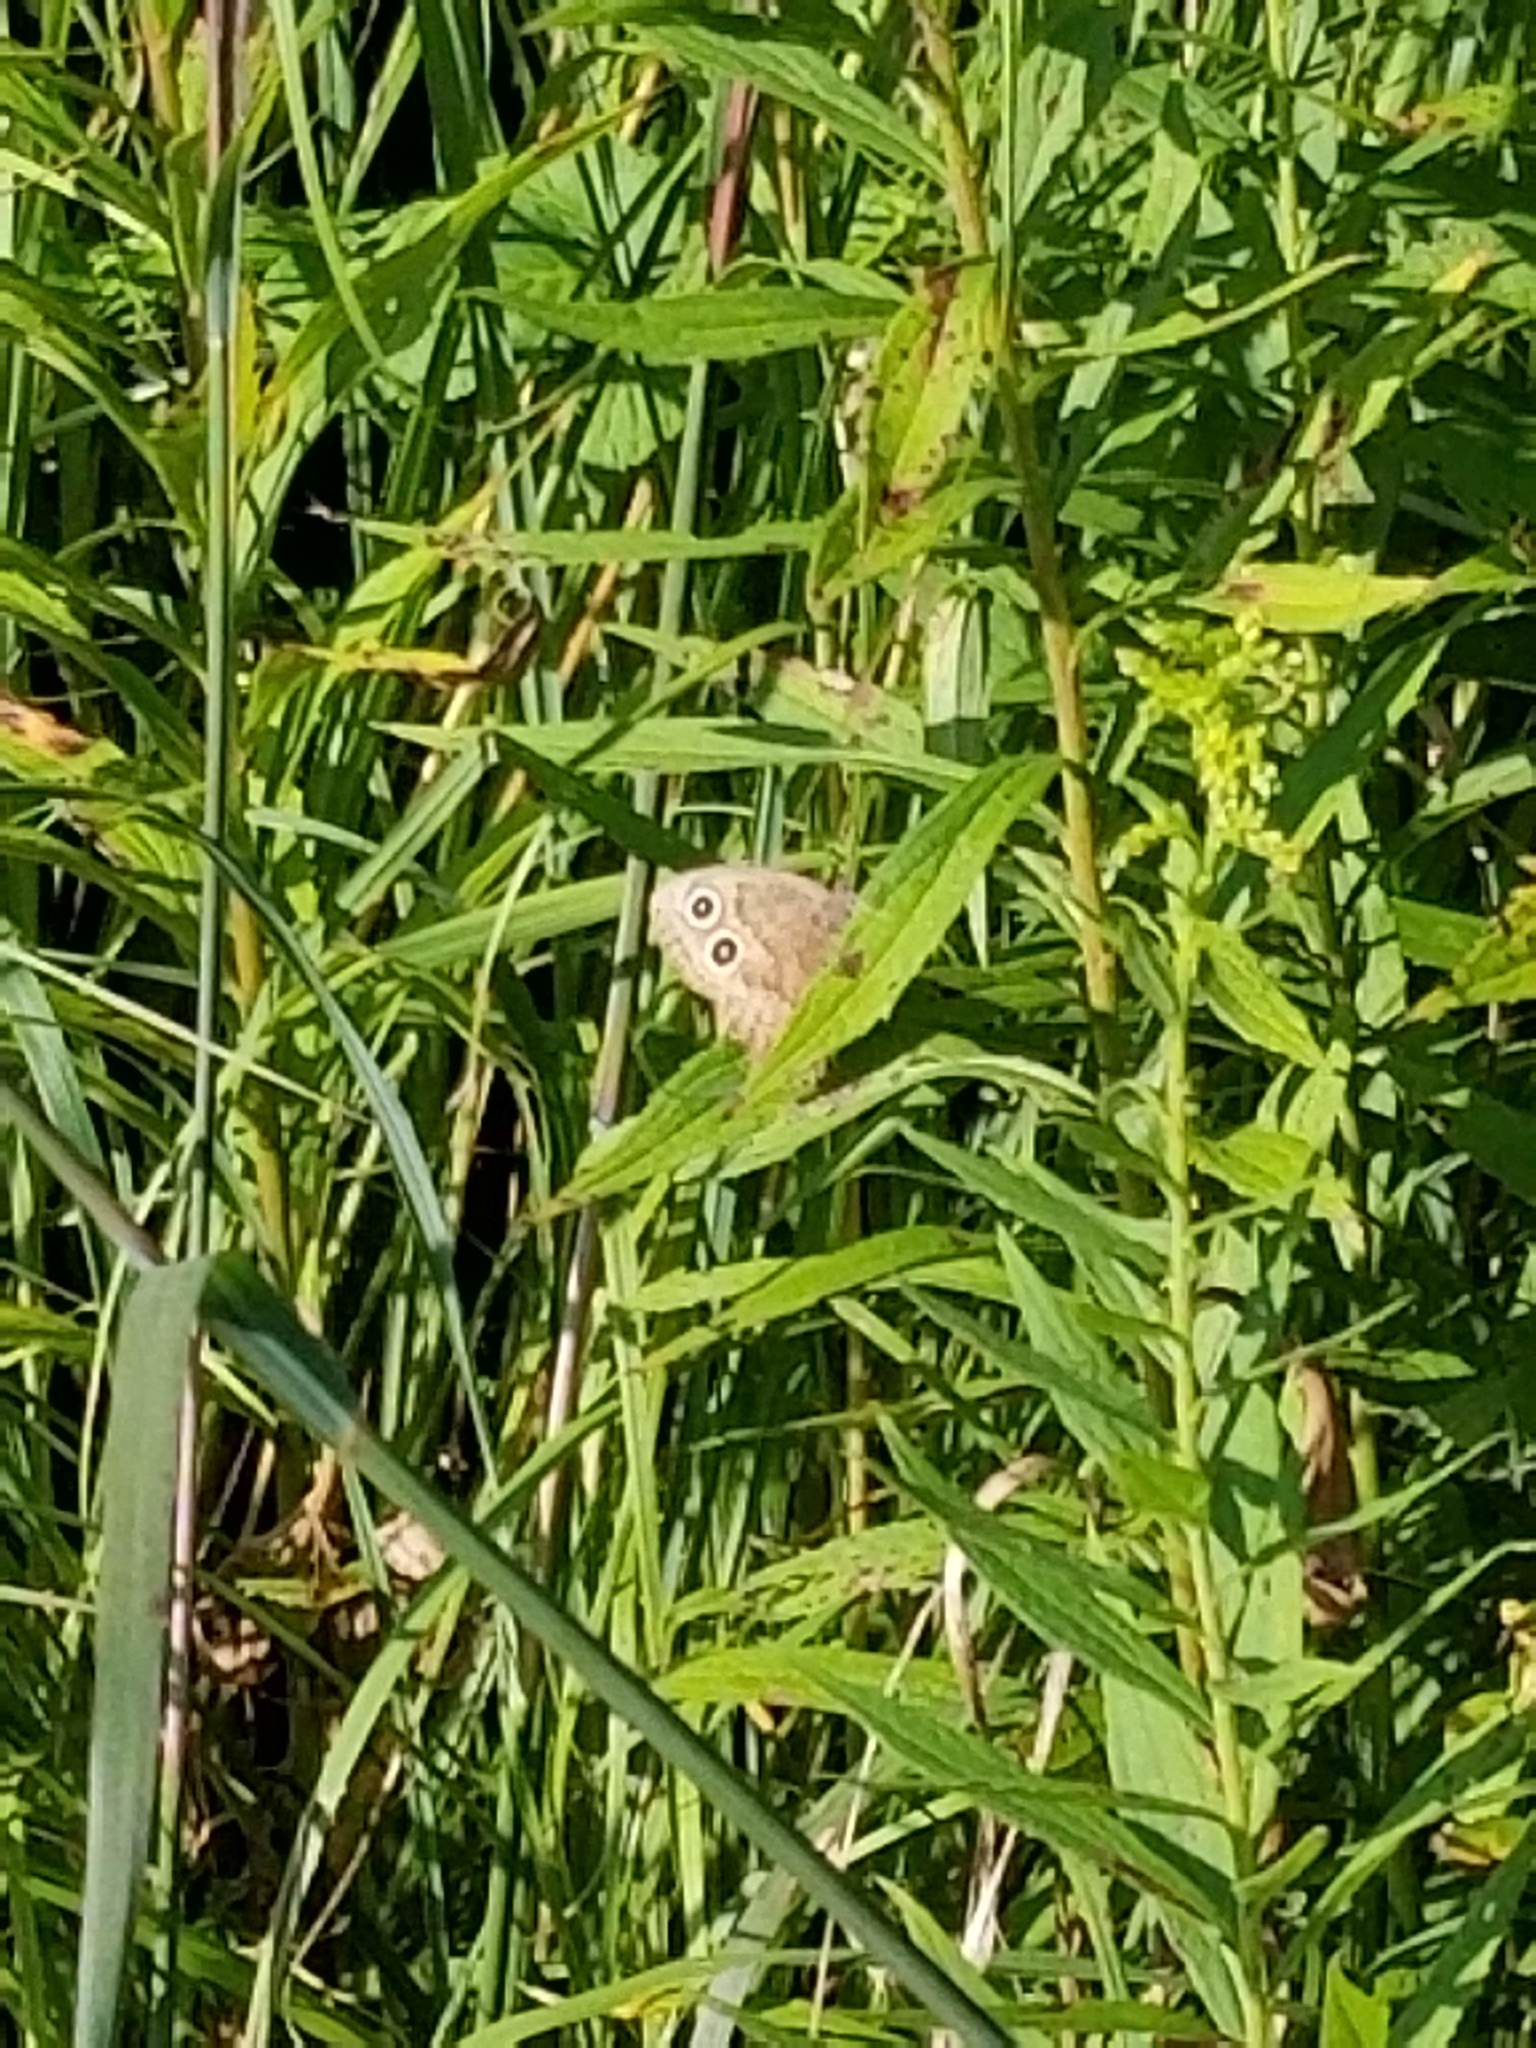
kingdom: Animalia
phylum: Arthropoda
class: Insecta
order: Lepidoptera
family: Nymphalidae
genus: Cercyonis
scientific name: Cercyonis pegala
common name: Common wood-nymph
